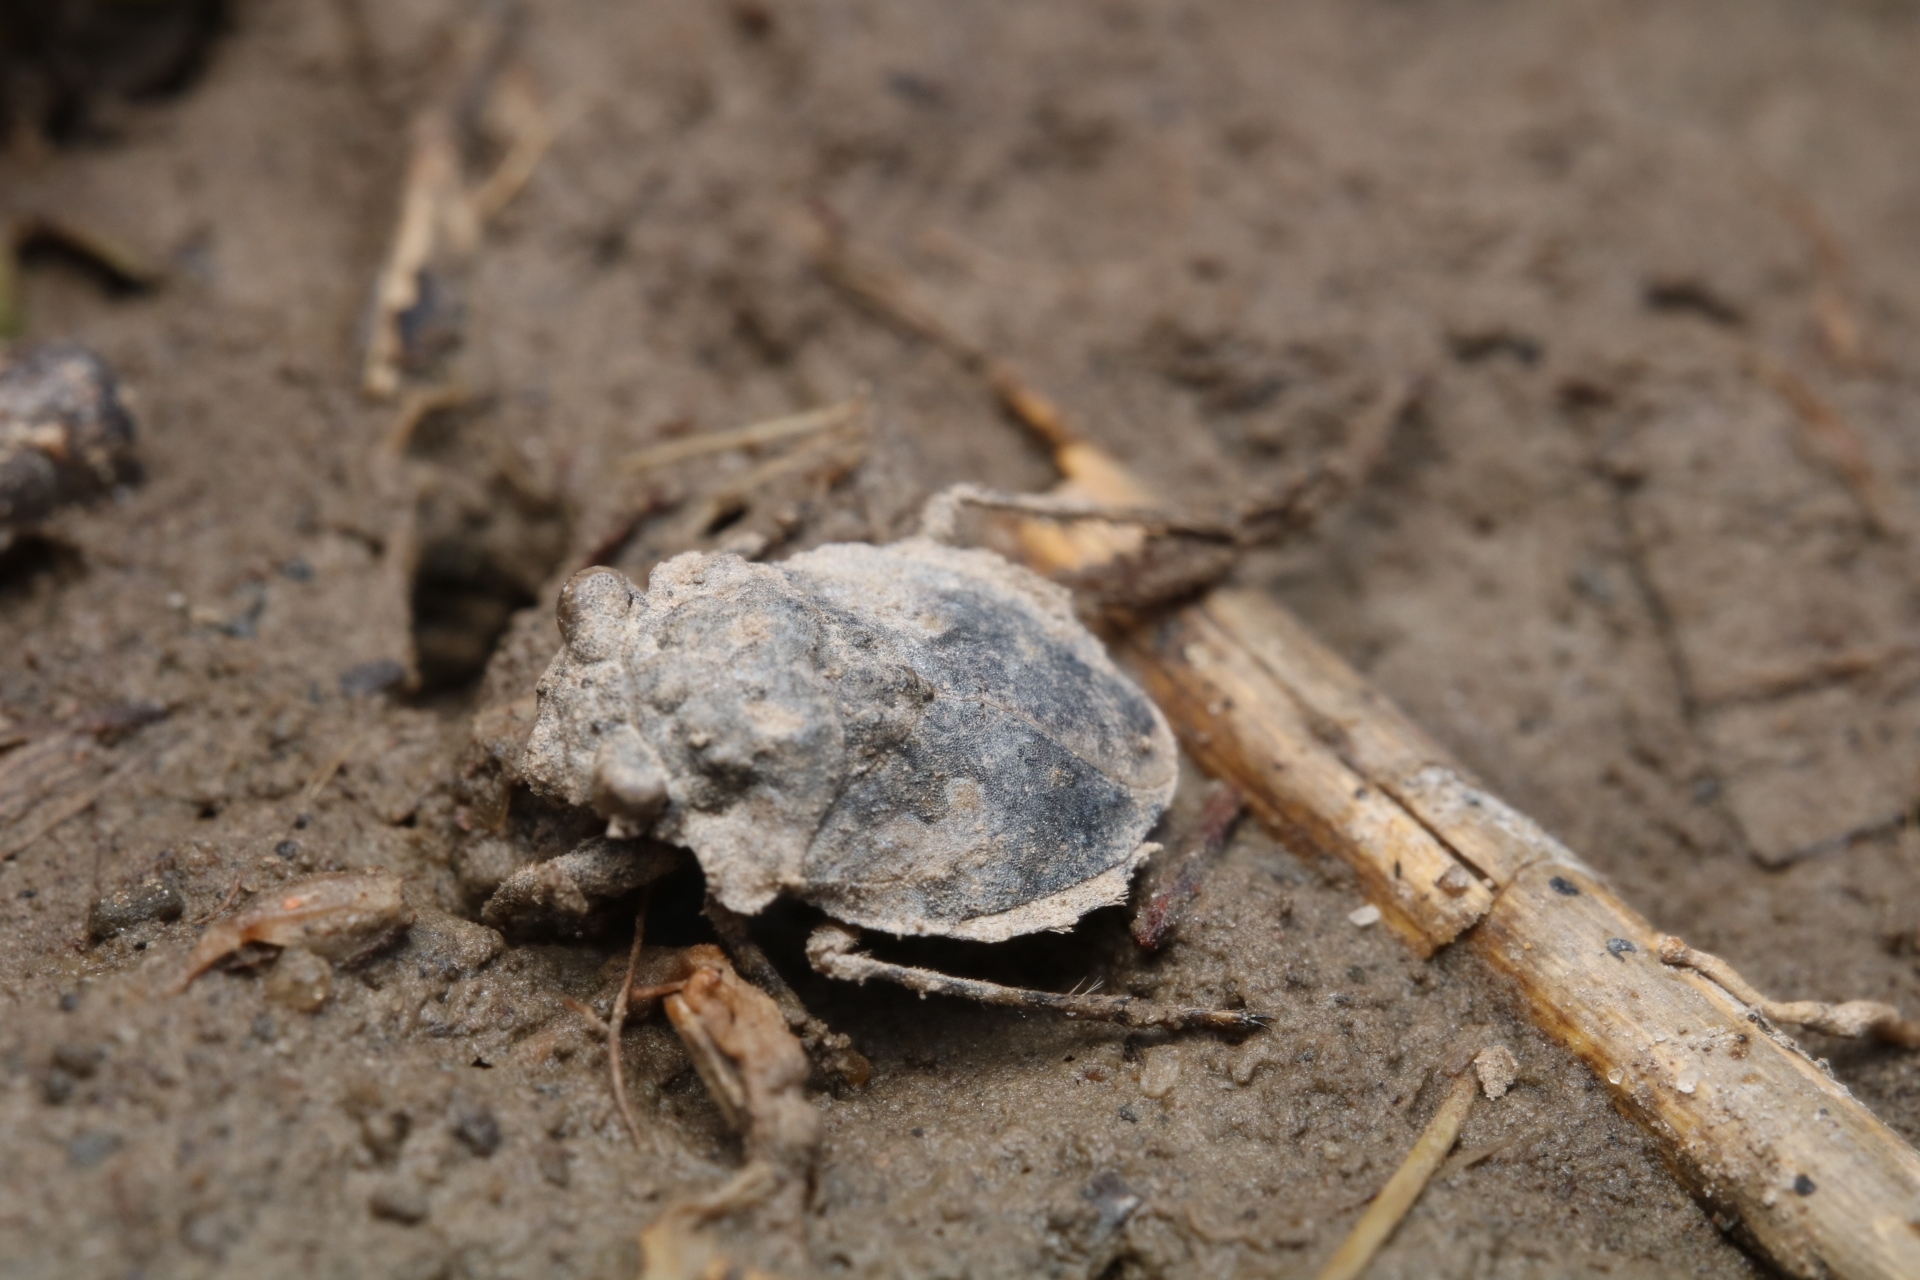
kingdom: Animalia
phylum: Arthropoda
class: Insecta
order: Hemiptera
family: Gelastocoridae
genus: Gelastocoris
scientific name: Gelastocoris oculatus
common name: Toad bug
